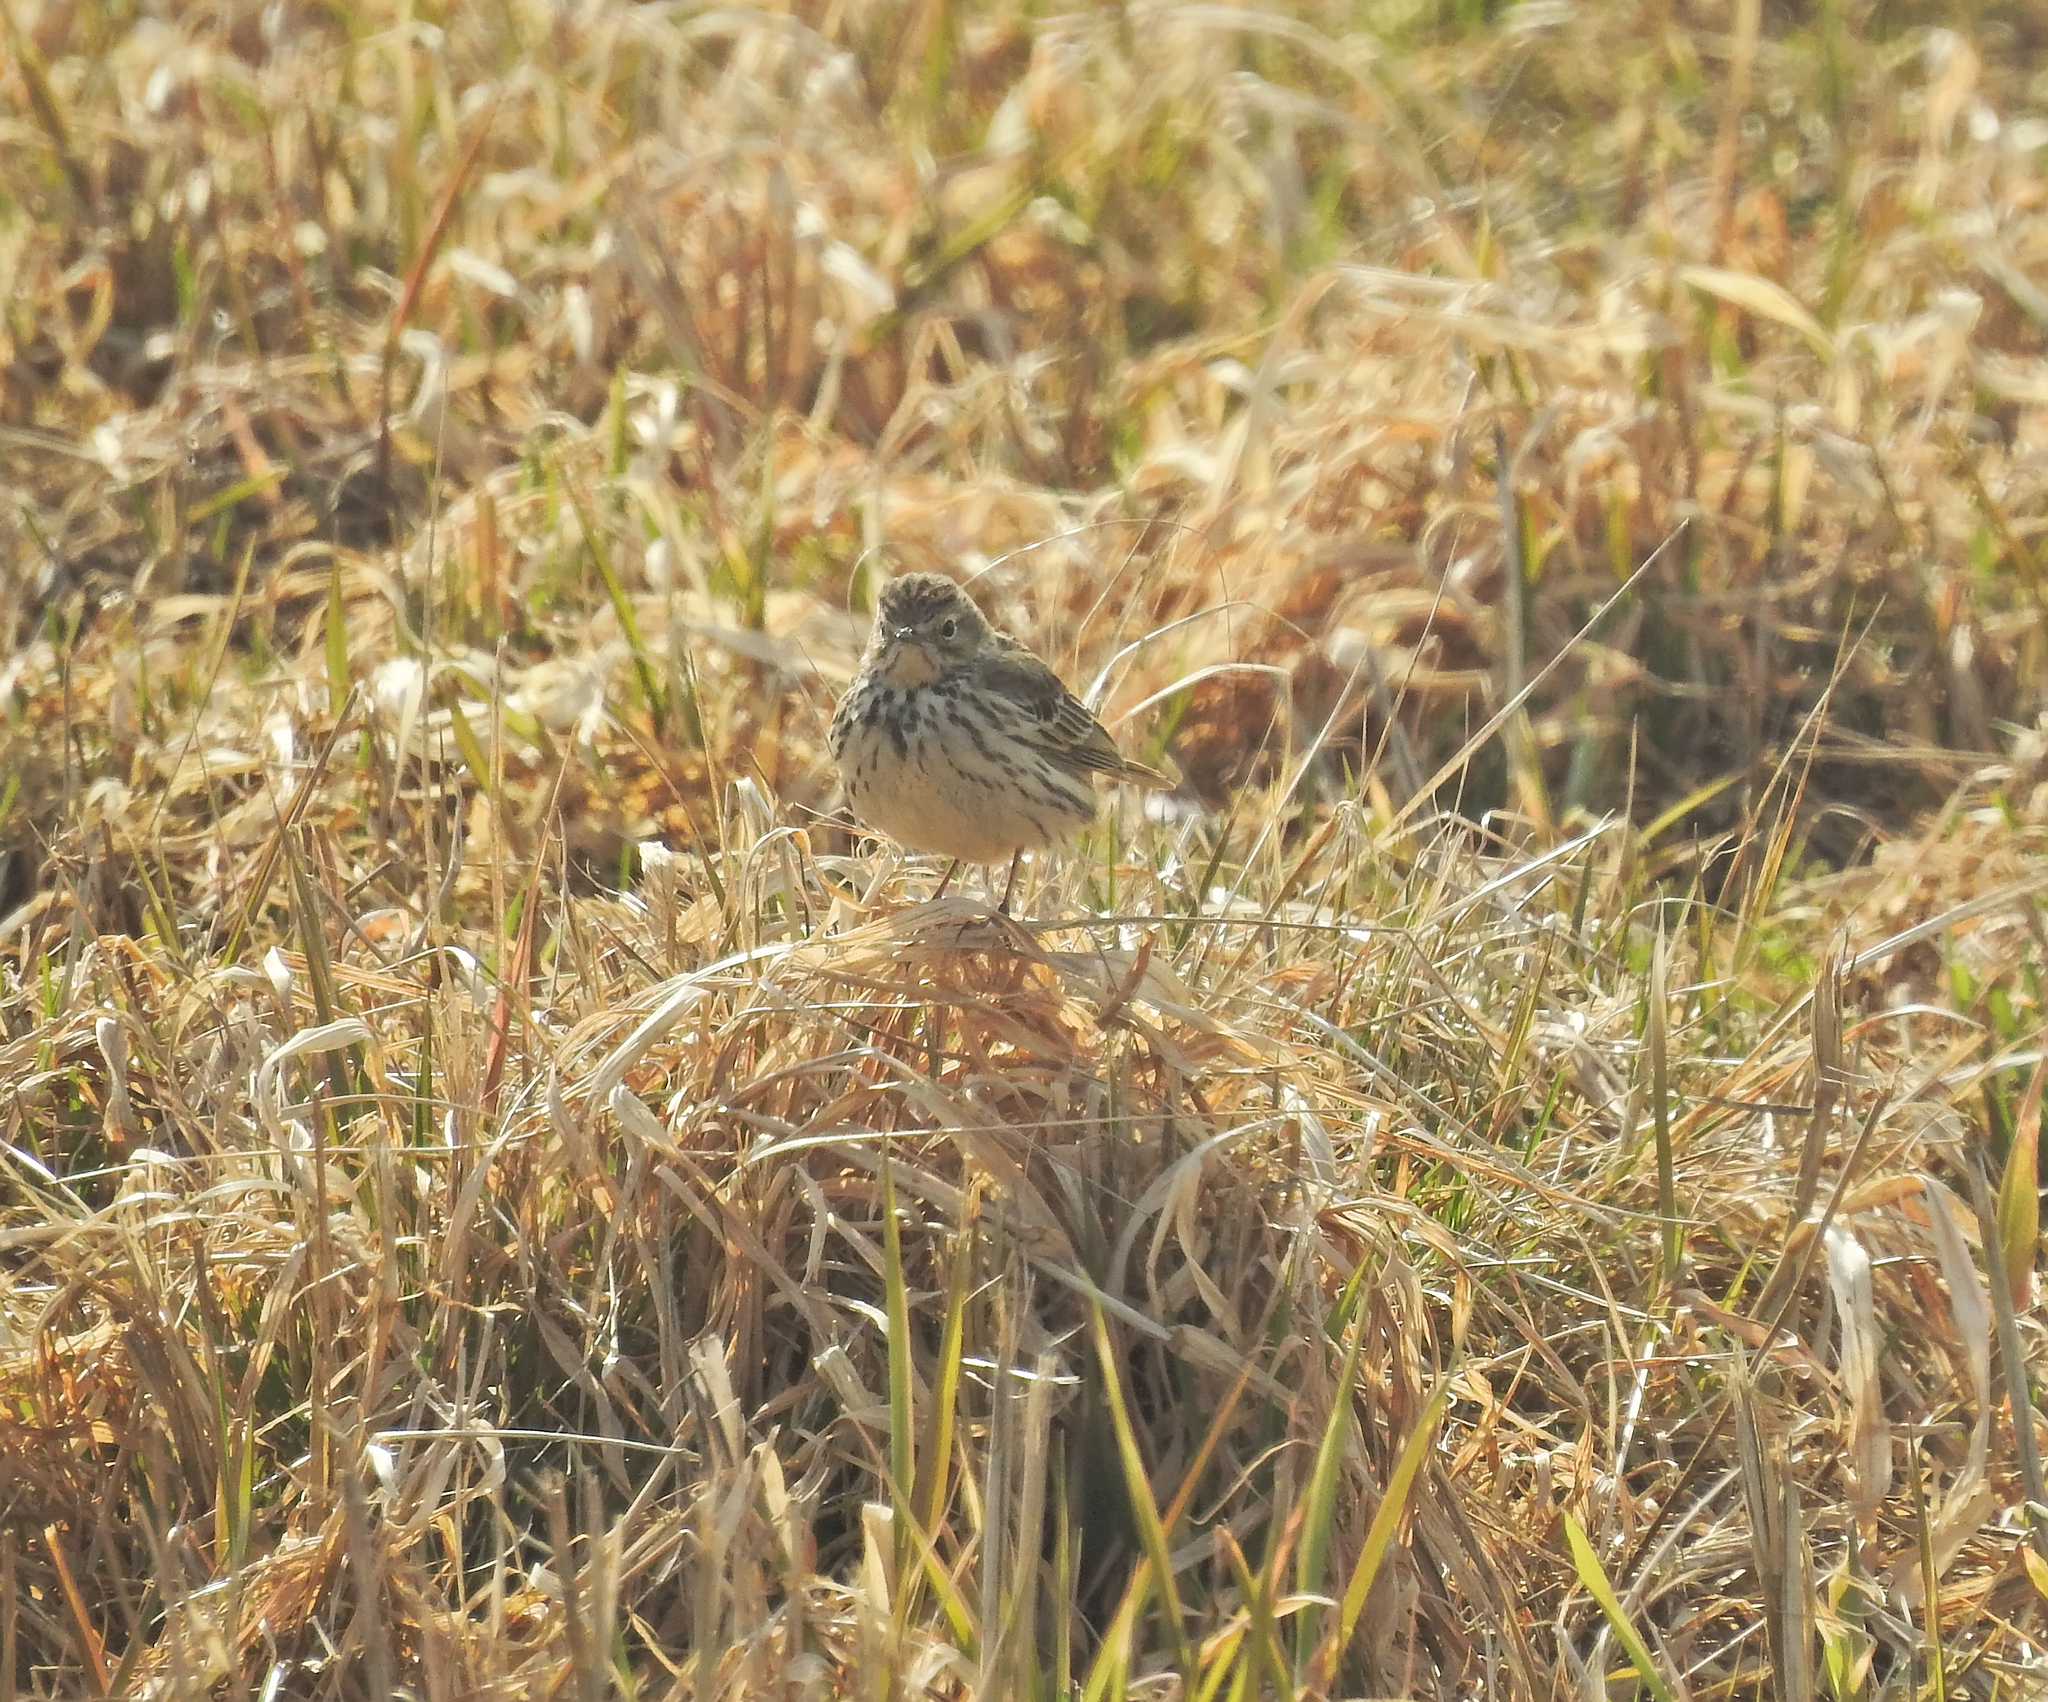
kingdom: Animalia
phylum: Chordata
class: Aves
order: Passeriformes
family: Motacillidae
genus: Anthus
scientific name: Anthus pratensis
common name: Meadow pipit
